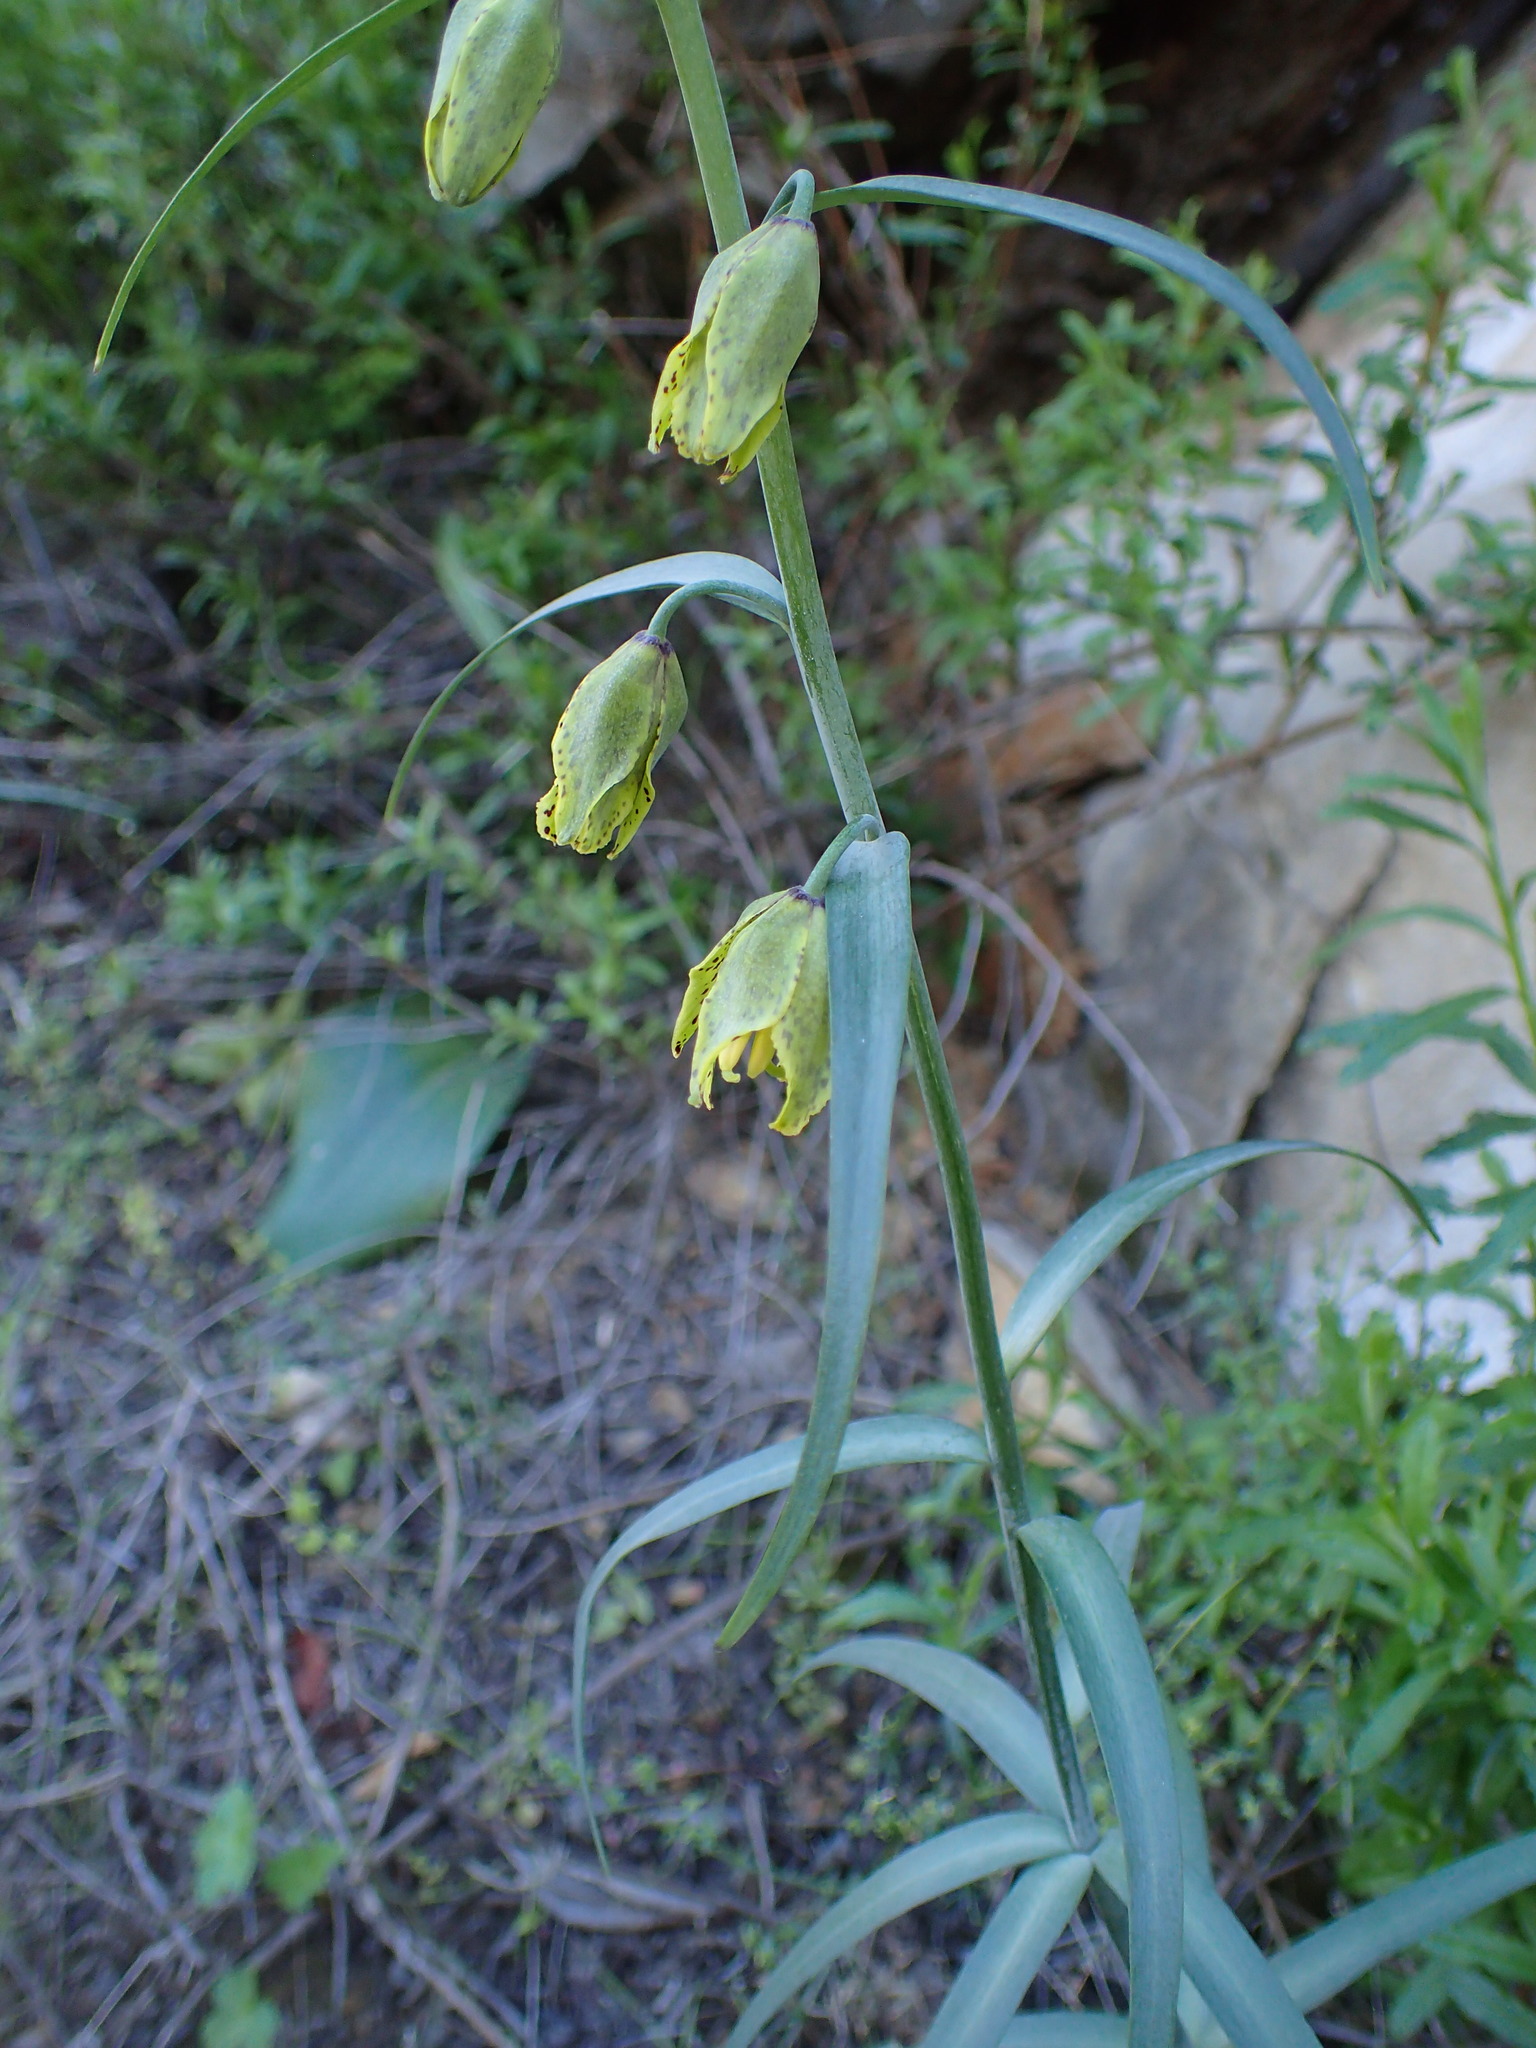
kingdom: Plantae
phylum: Tracheophyta
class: Liliopsida
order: Liliales
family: Liliaceae
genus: Fritillaria
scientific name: Fritillaria ojaiensis
